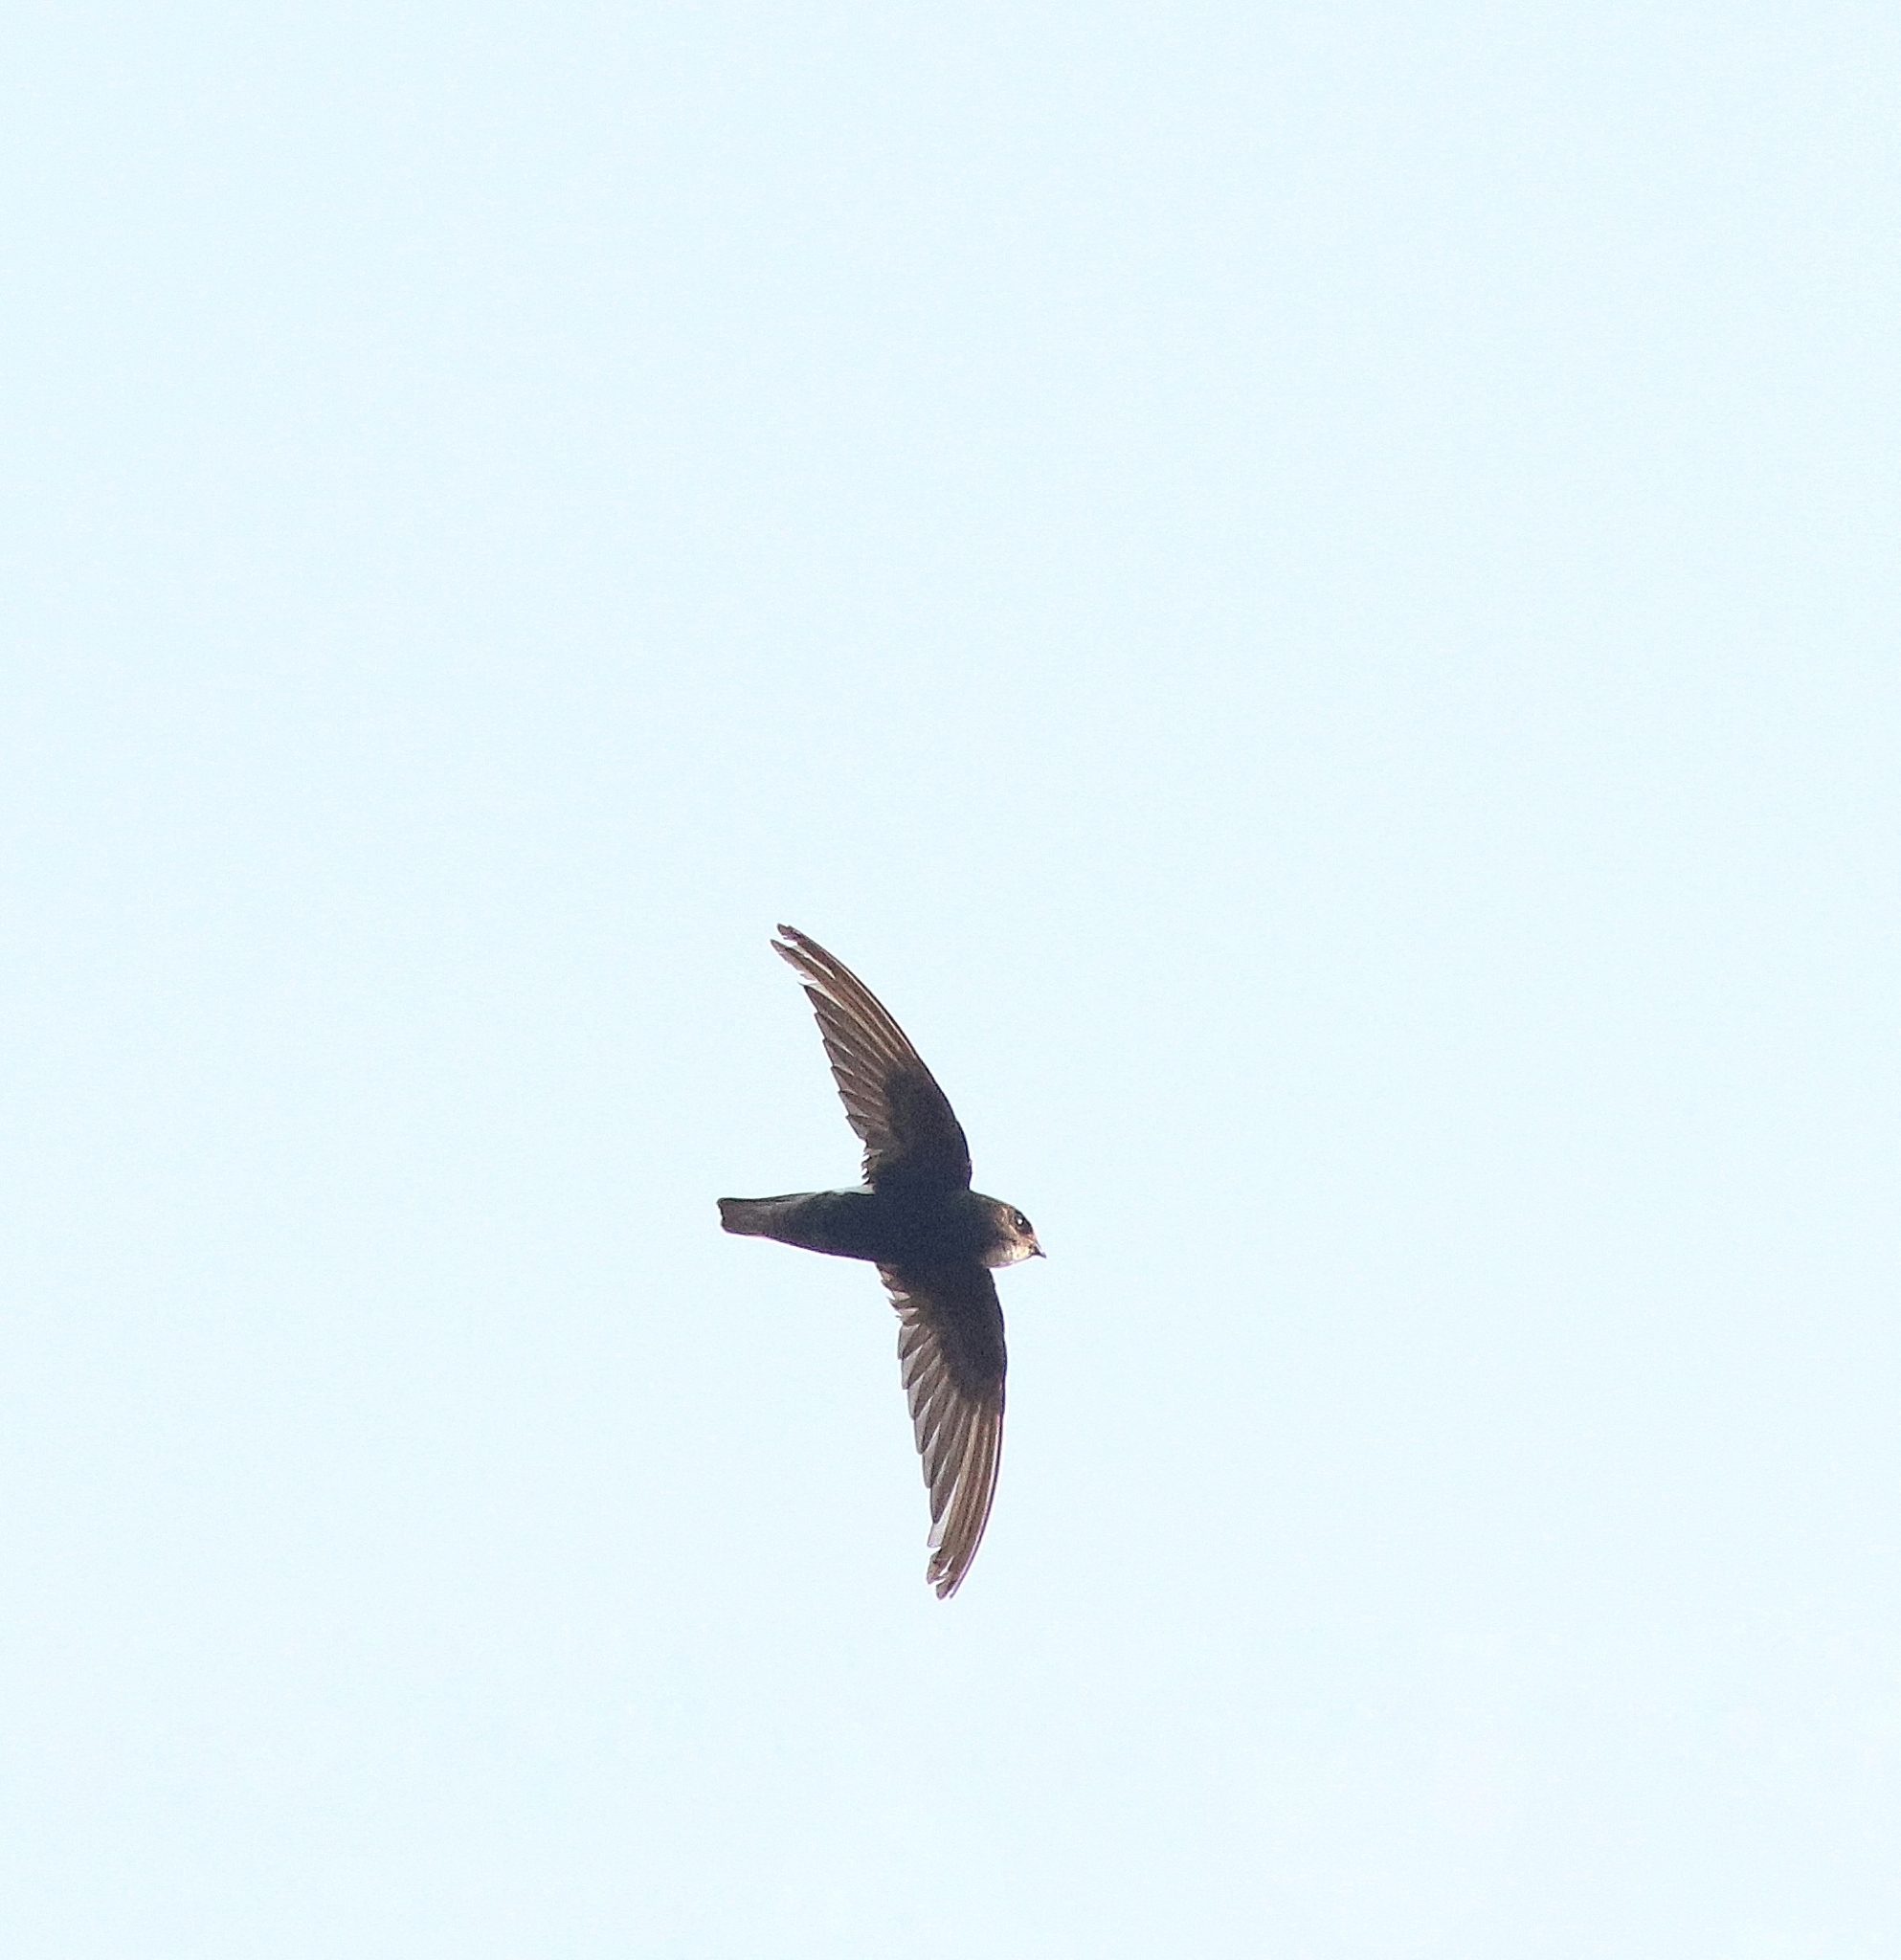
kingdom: Animalia
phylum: Chordata
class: Aves
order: Apodiformes
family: Apodidae
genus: Apus
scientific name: Apus affinis
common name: Little swift
